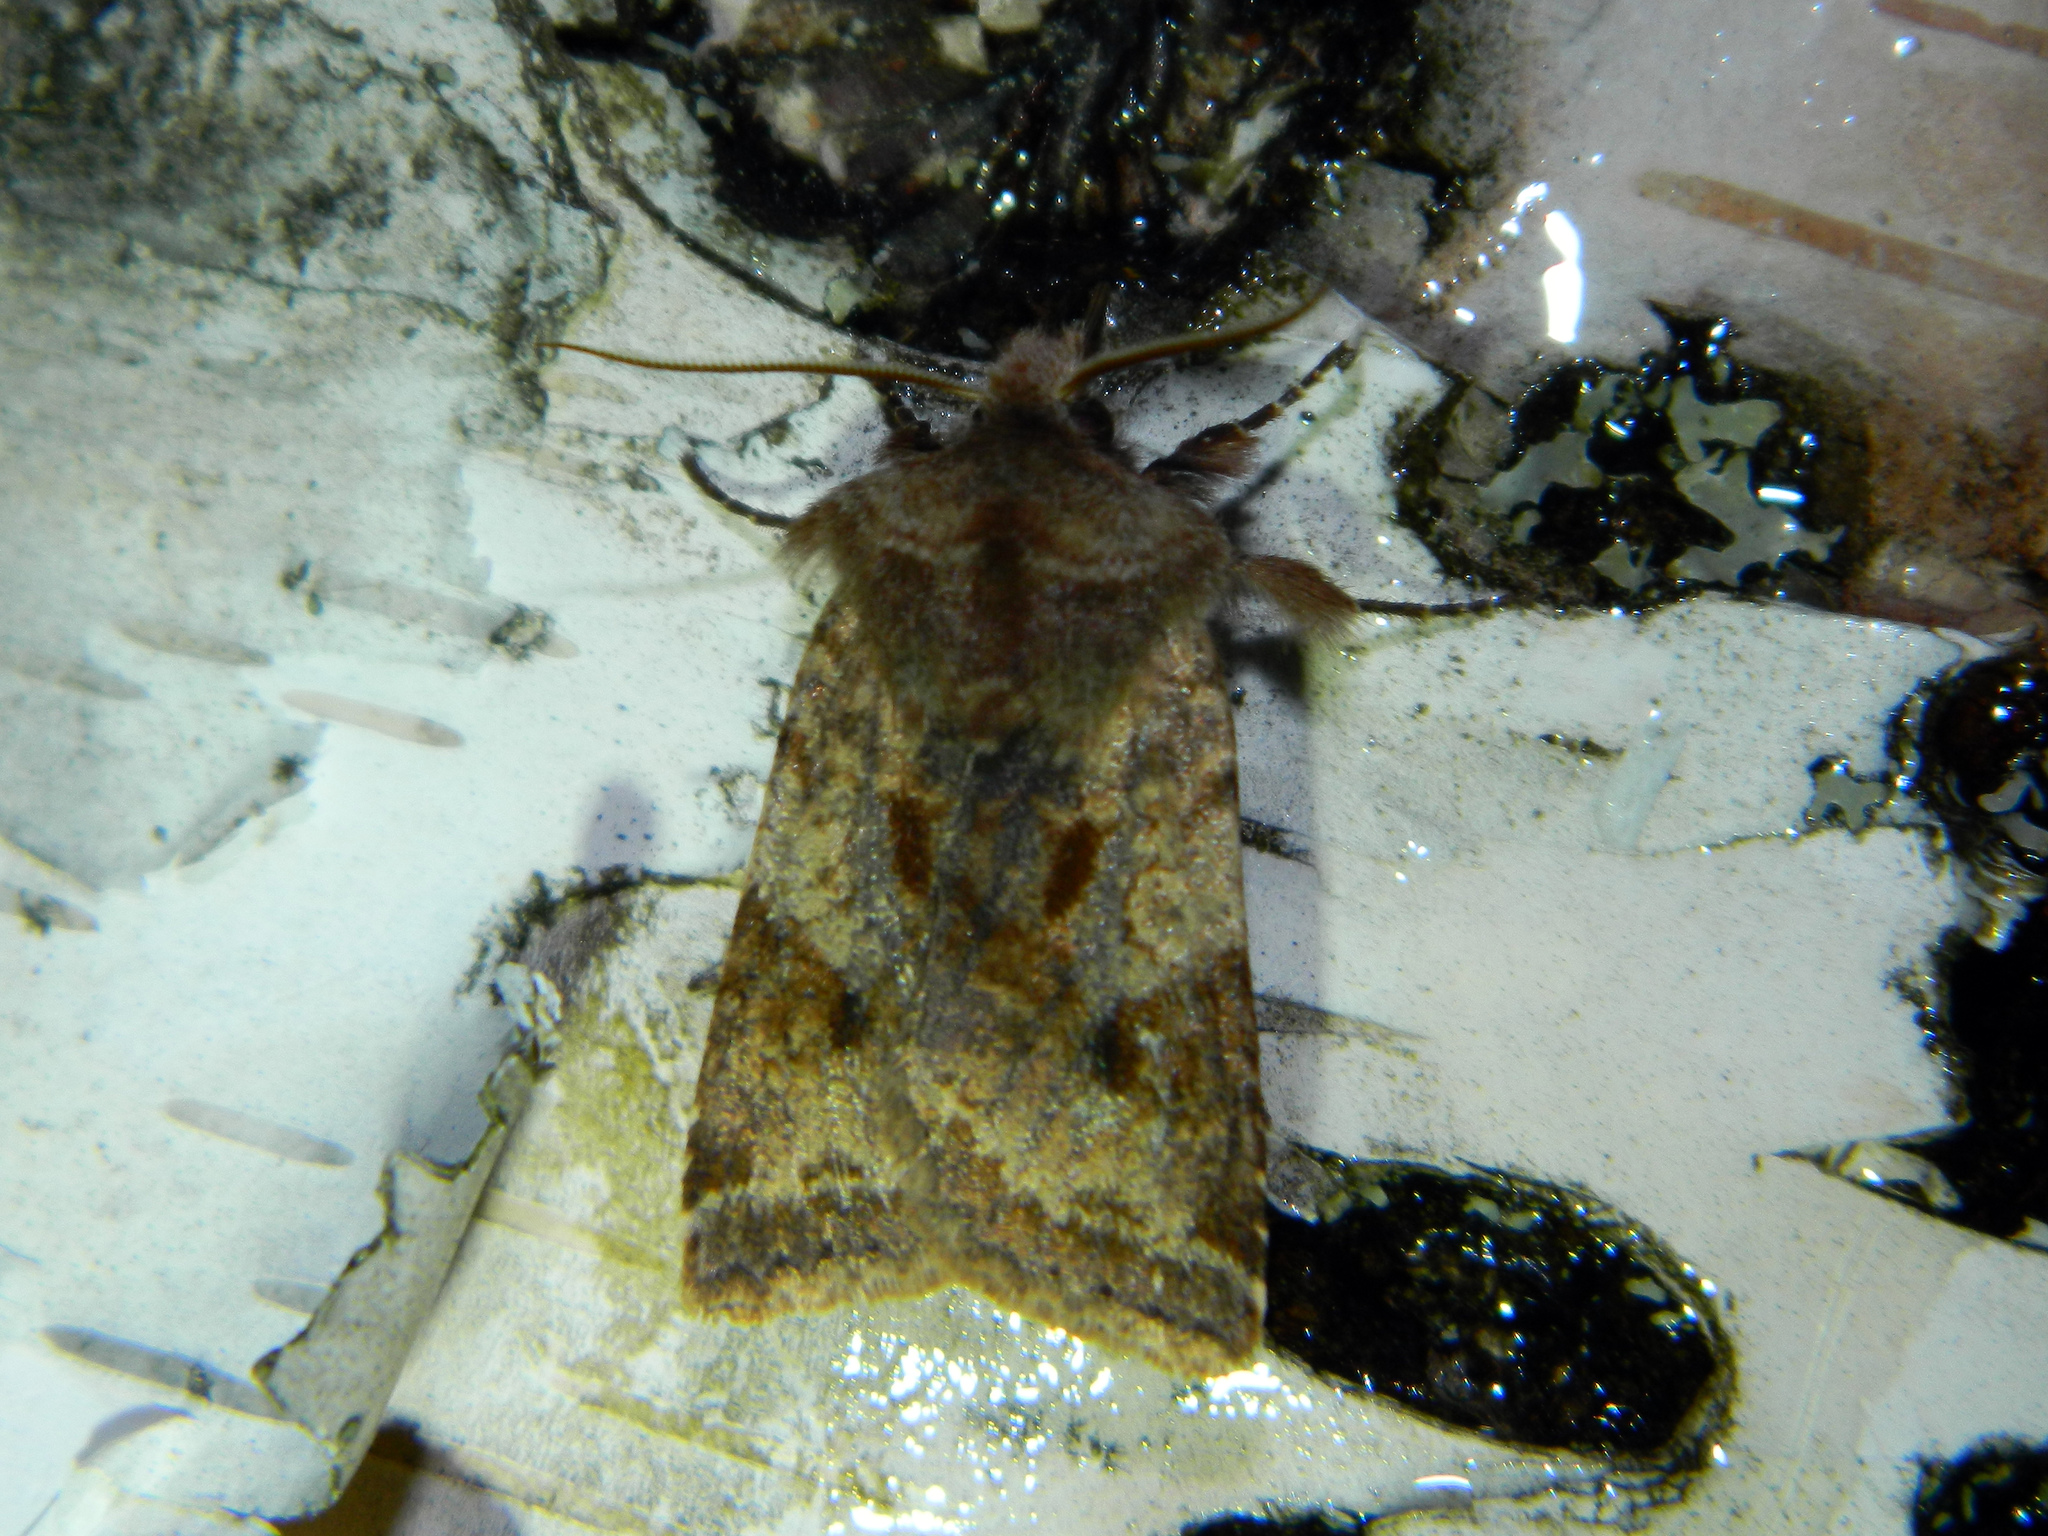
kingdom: Animalia
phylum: Arthropoda
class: Insecta
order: Lepidoptera
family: Noctuidae
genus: Cerastis
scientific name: Cerastis salicarum
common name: Willow dart
